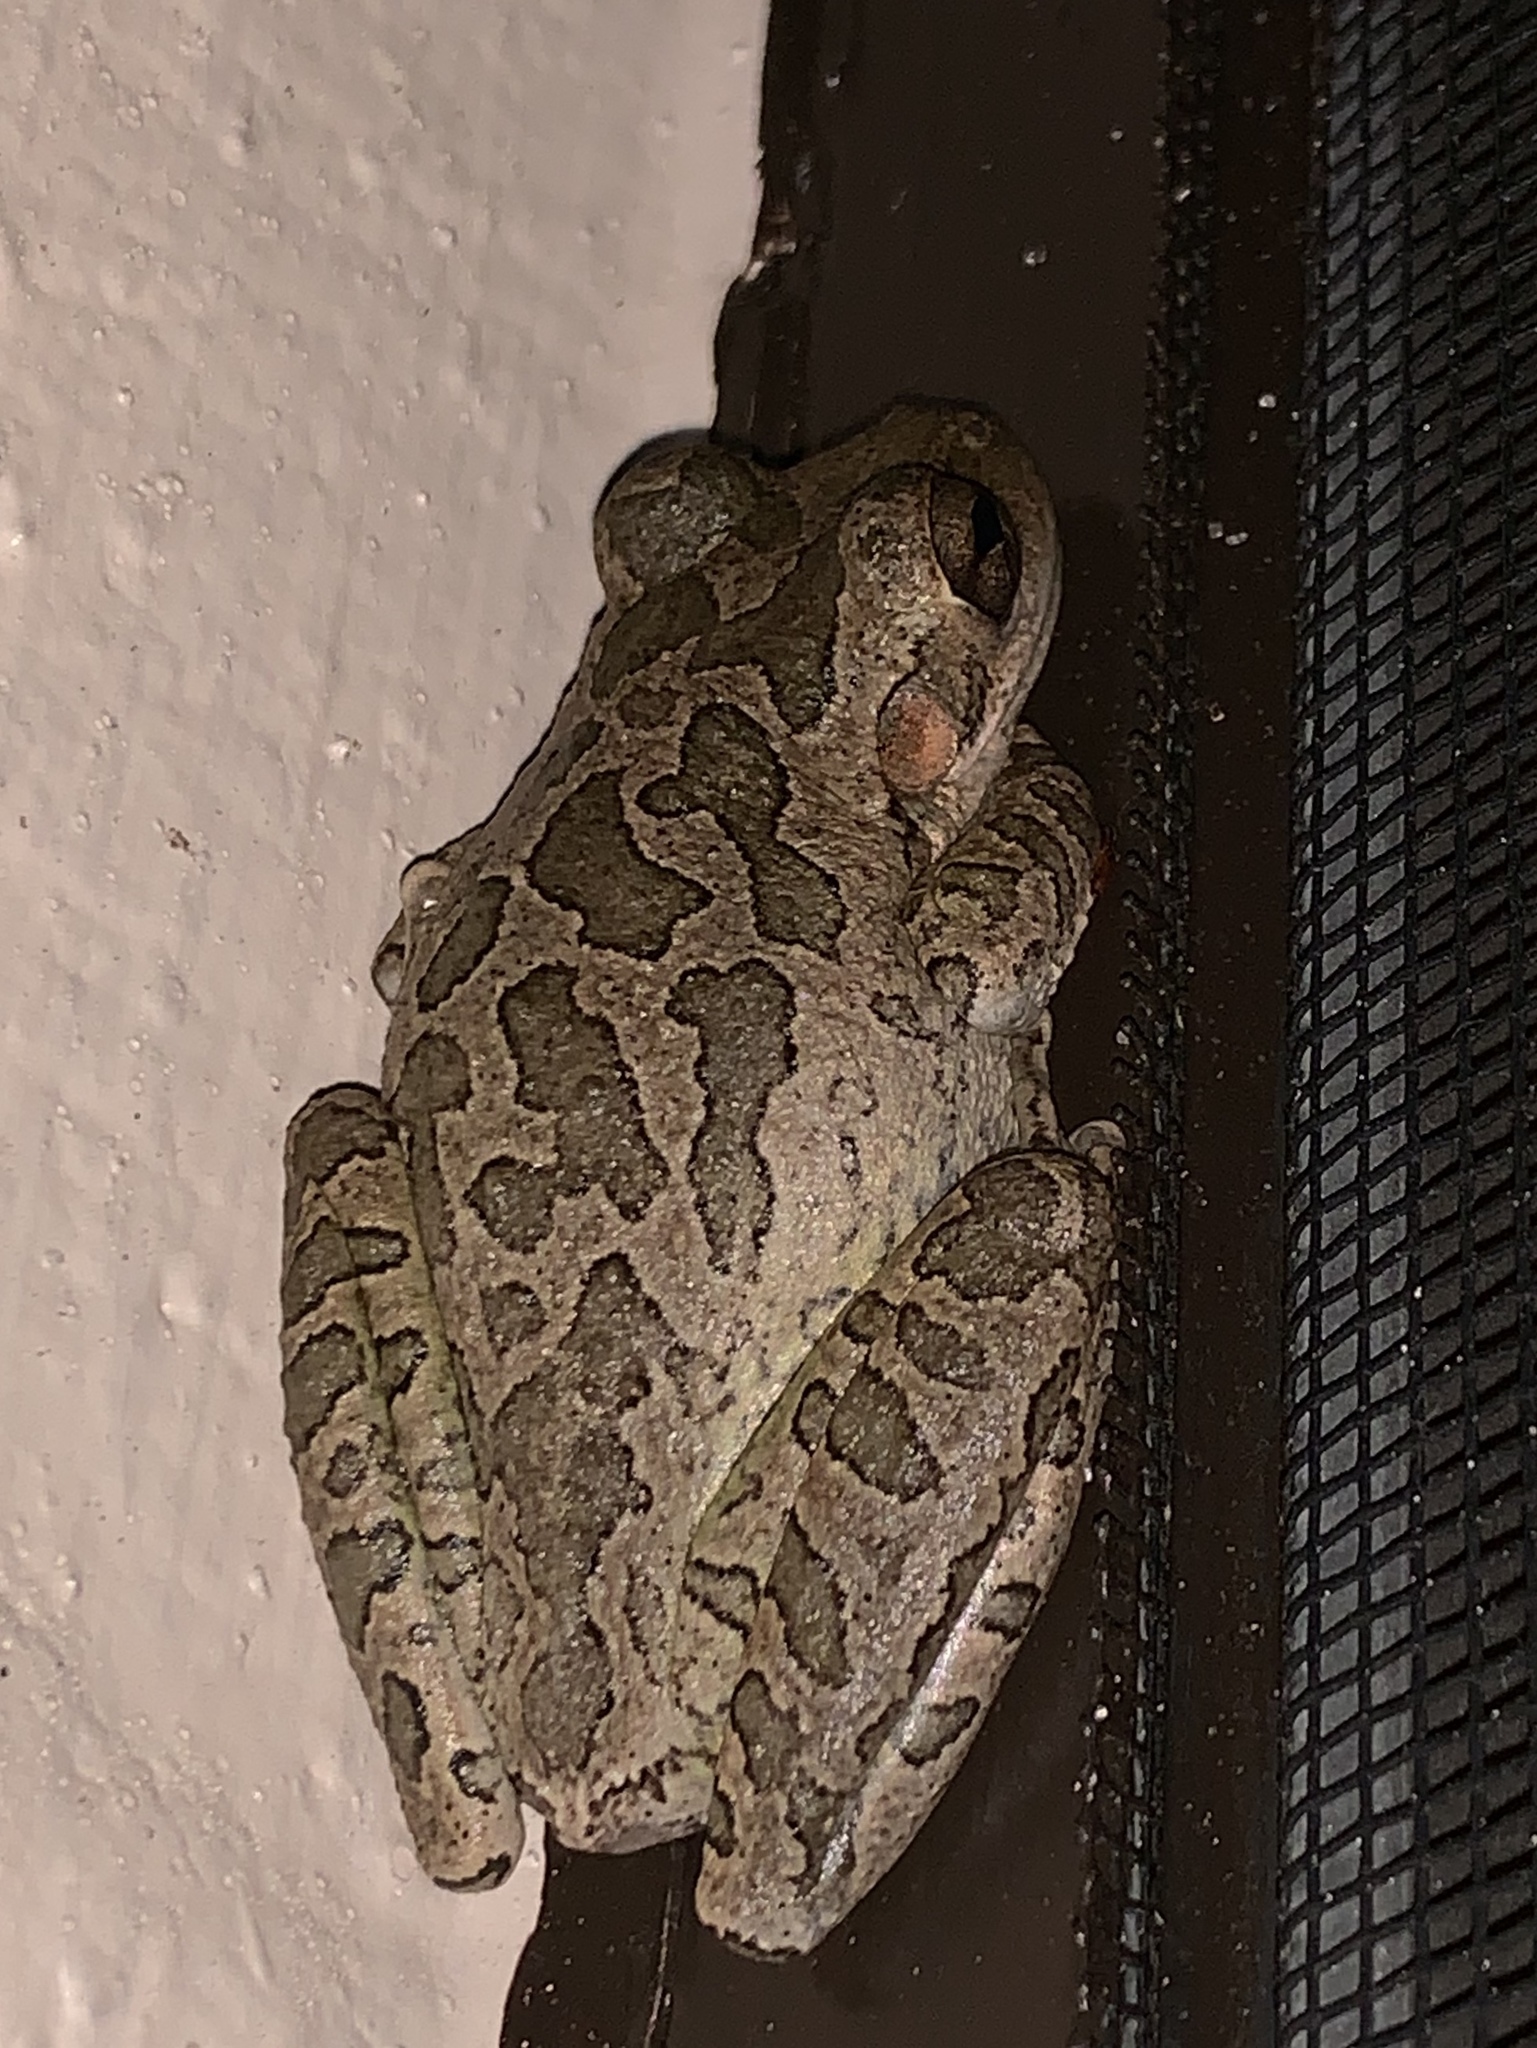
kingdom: Animalia
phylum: Chordata
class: Amphibia
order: Anura
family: Hylidae
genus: Osteopilus
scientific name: Osteopilus septentrionalis
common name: Cuban treefrog
